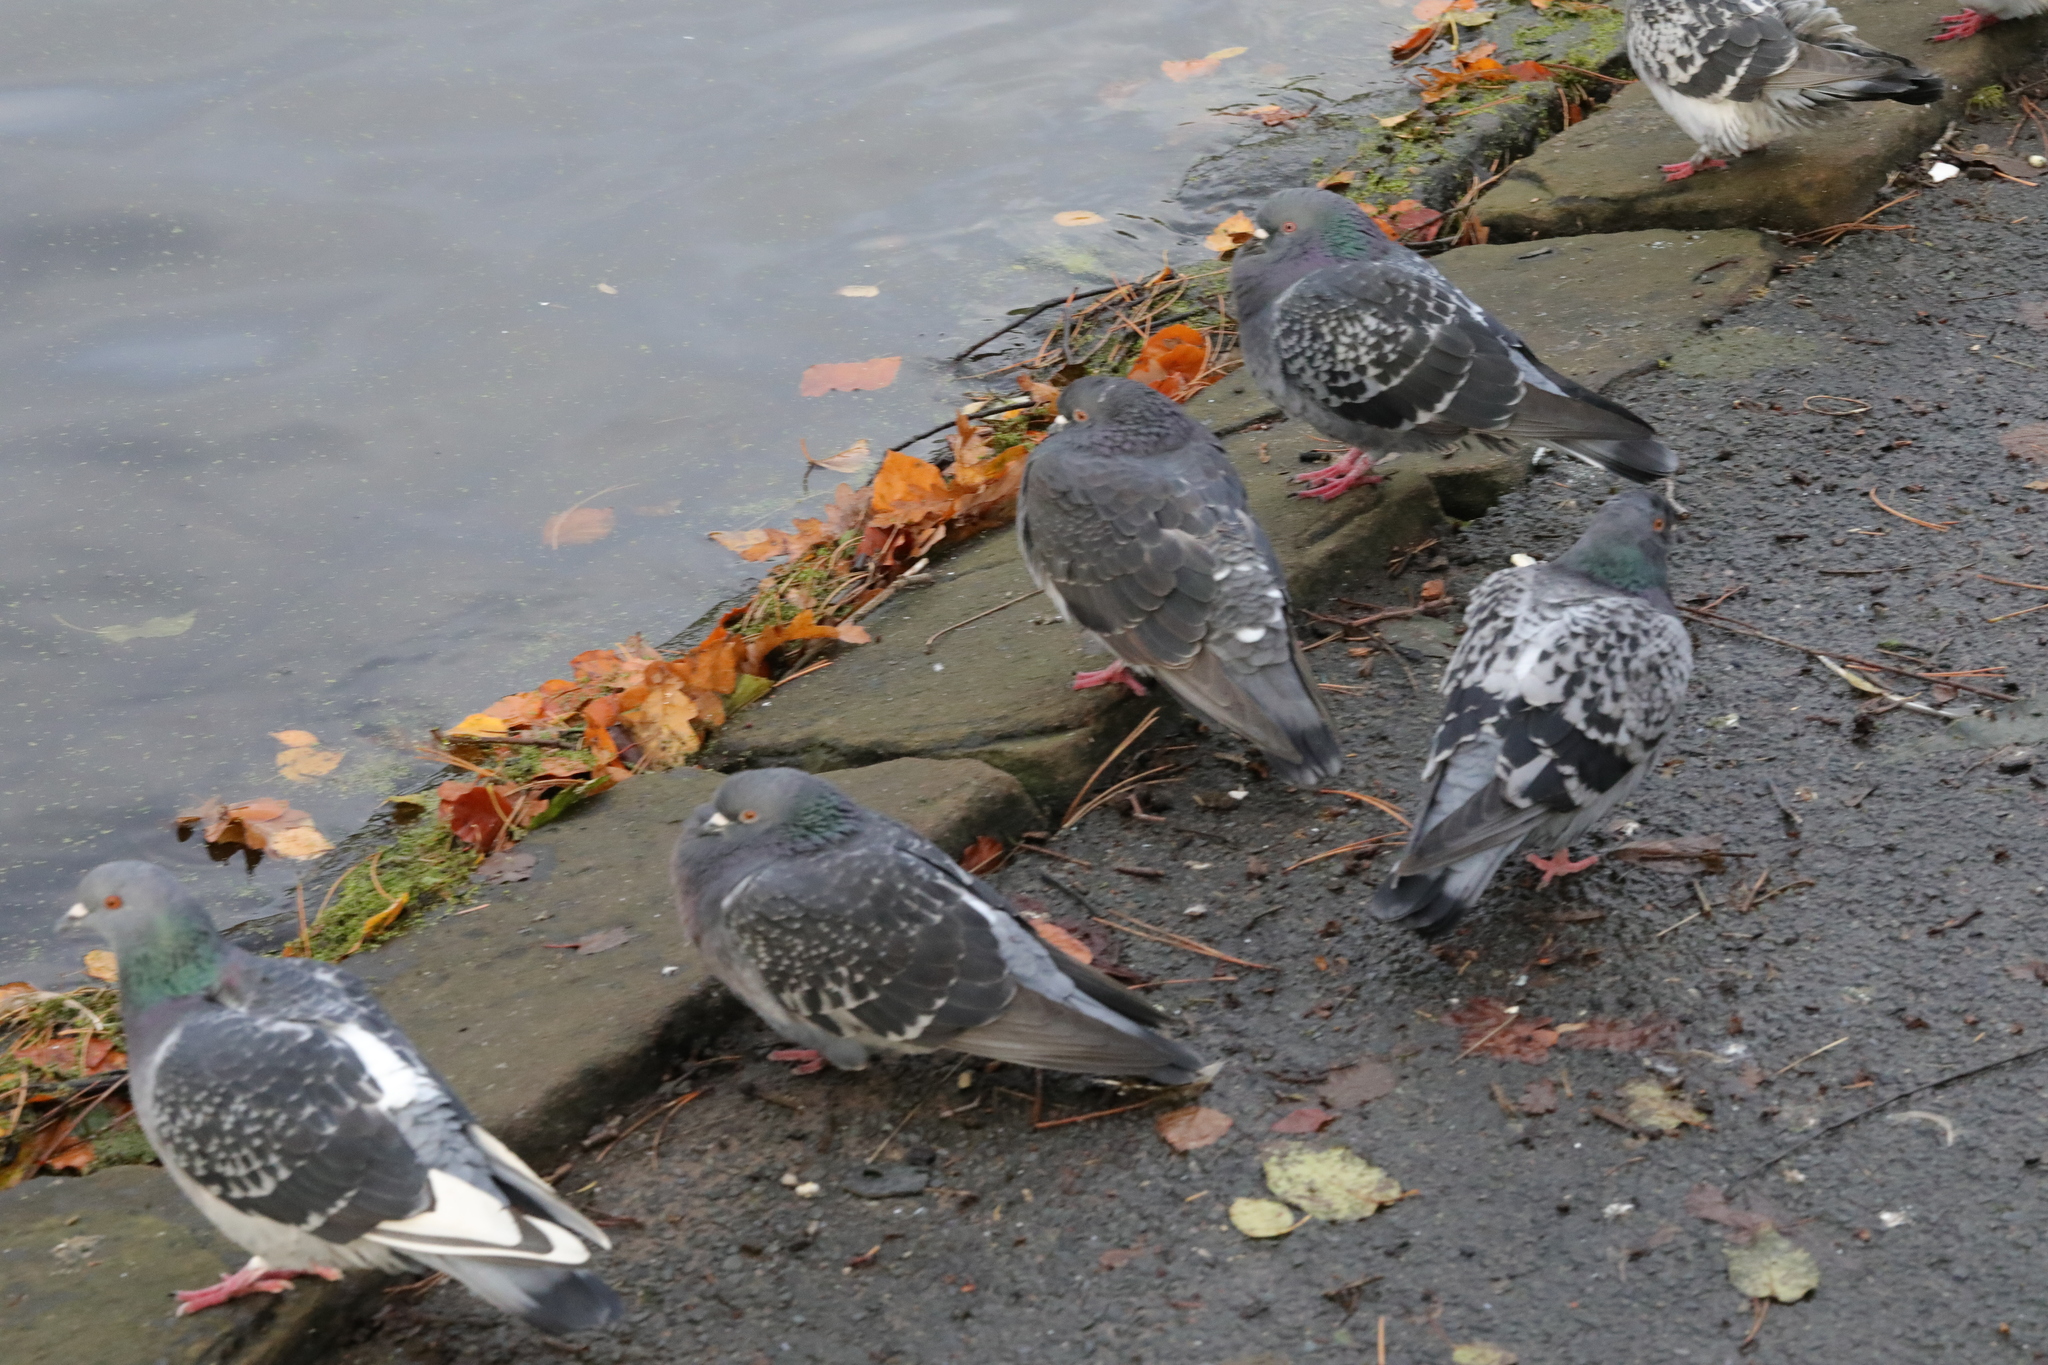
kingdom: Animalia
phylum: Chordata
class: Aves
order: Columbiformes
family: Columbidae
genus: Columba
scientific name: Columba livia
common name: Rock pigeon
